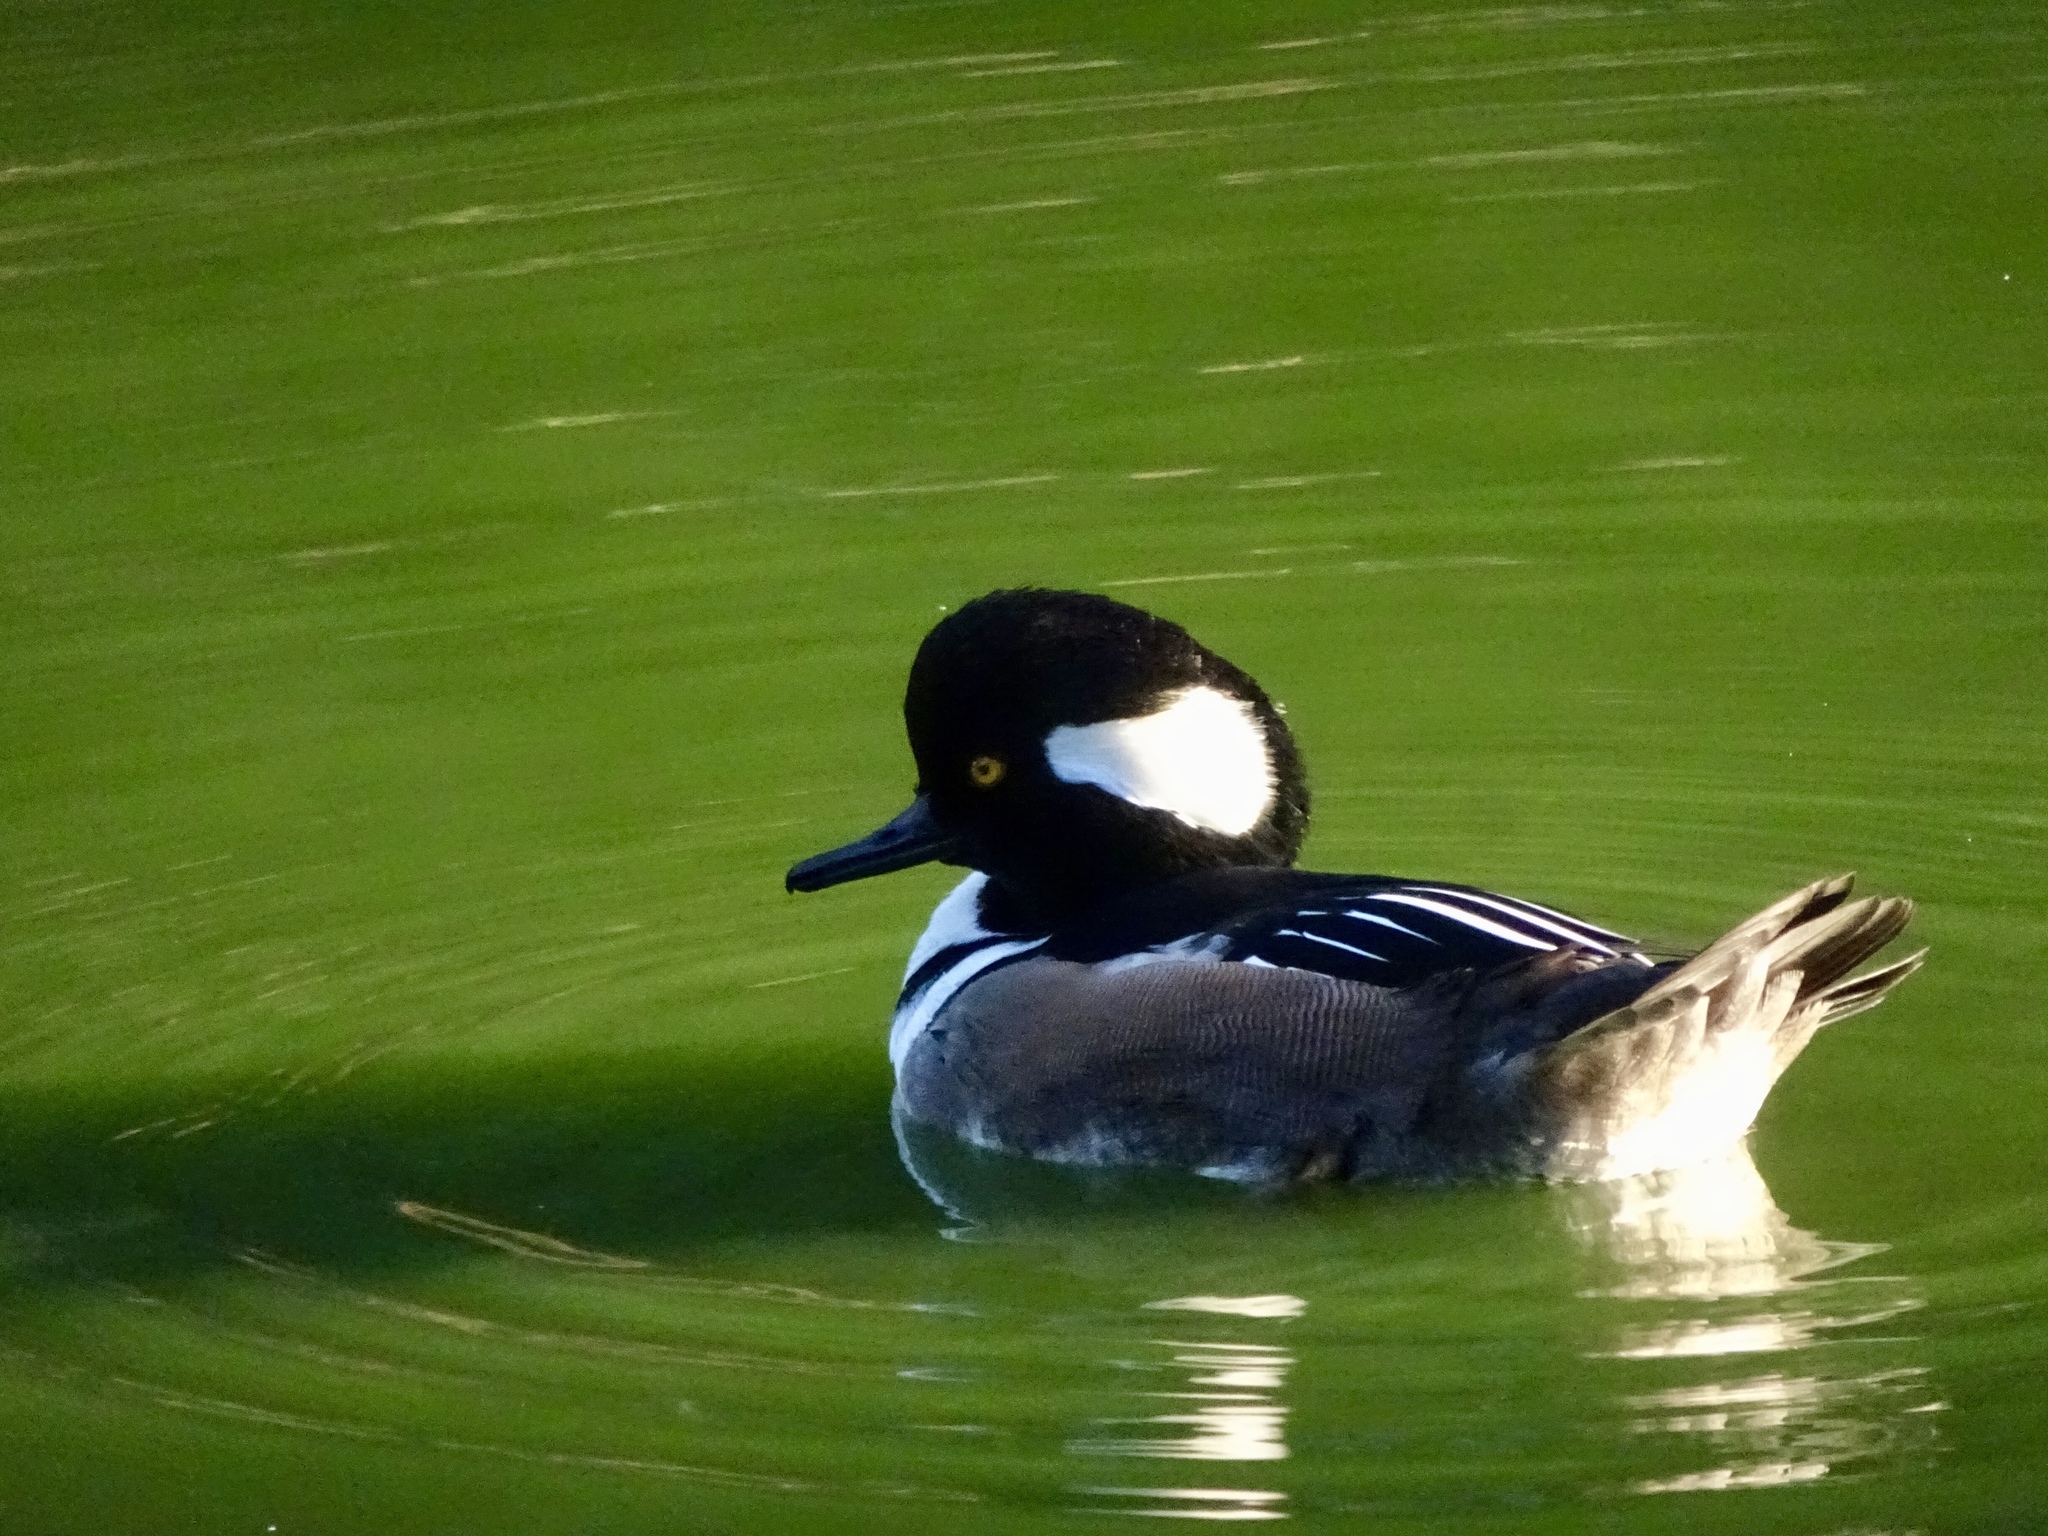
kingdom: Animalia
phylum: Chordata
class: Aves
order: Anseriformes
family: Anatidae
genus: Lophodytes
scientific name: Lophodytes cucullatus
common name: Hooded merganser
